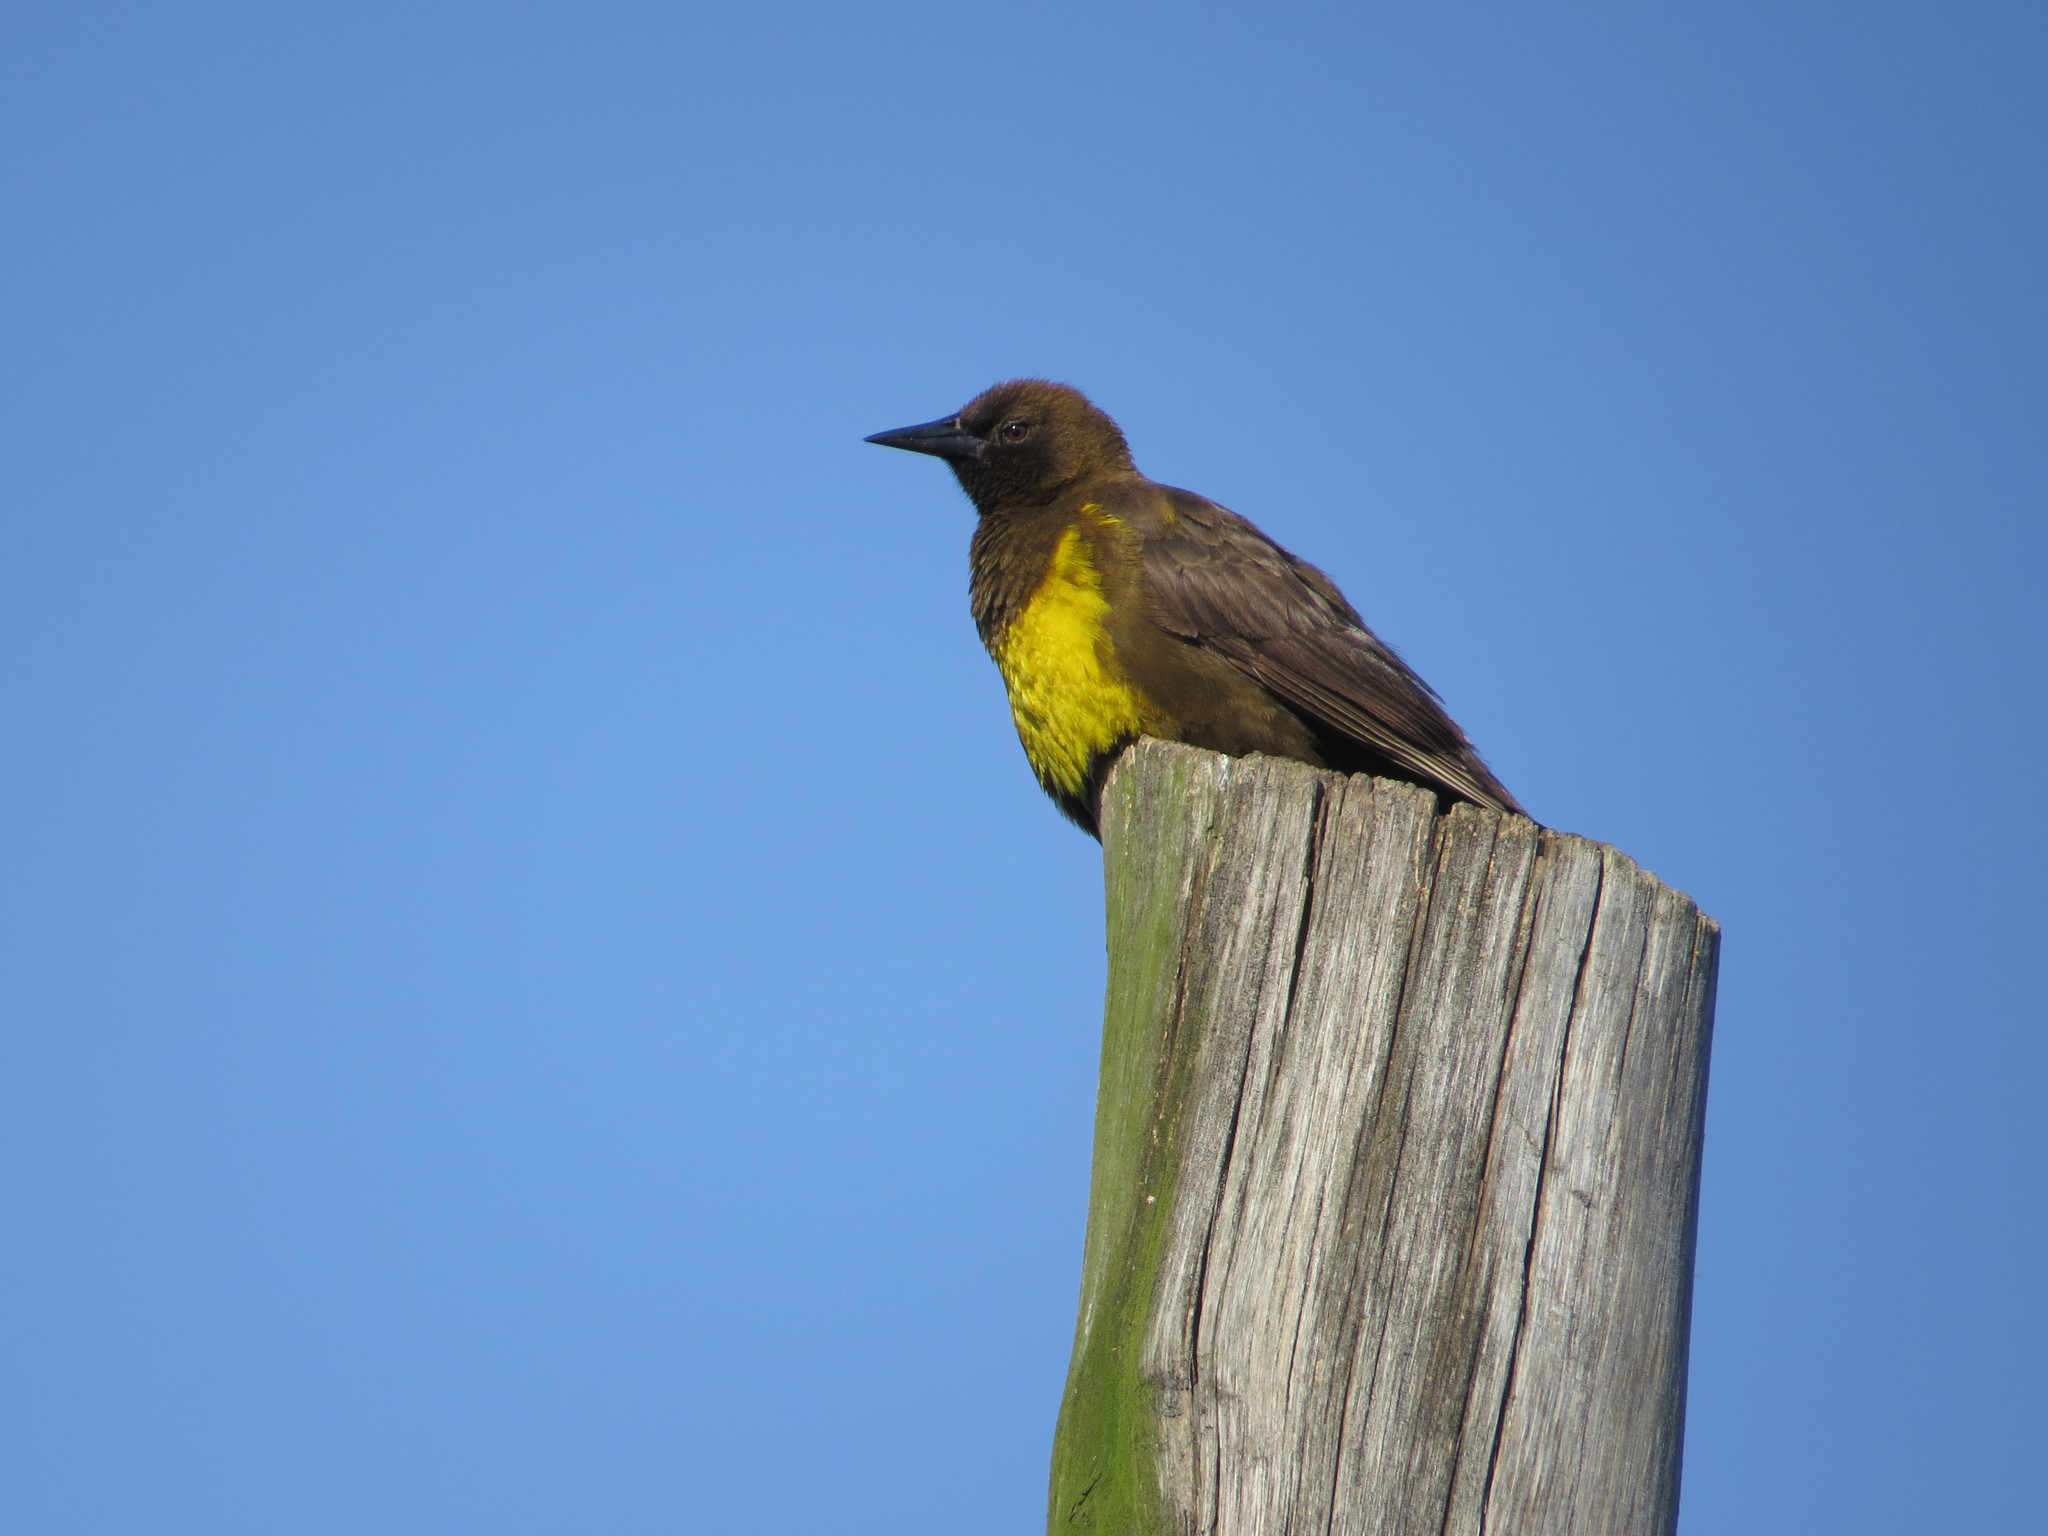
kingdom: Animalia
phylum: Chordata
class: Aves
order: Passeriformes
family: Icteridae
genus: Pseudoleistes
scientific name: Pseudoleistes virescens
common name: Brown-and-yellow marshbird
